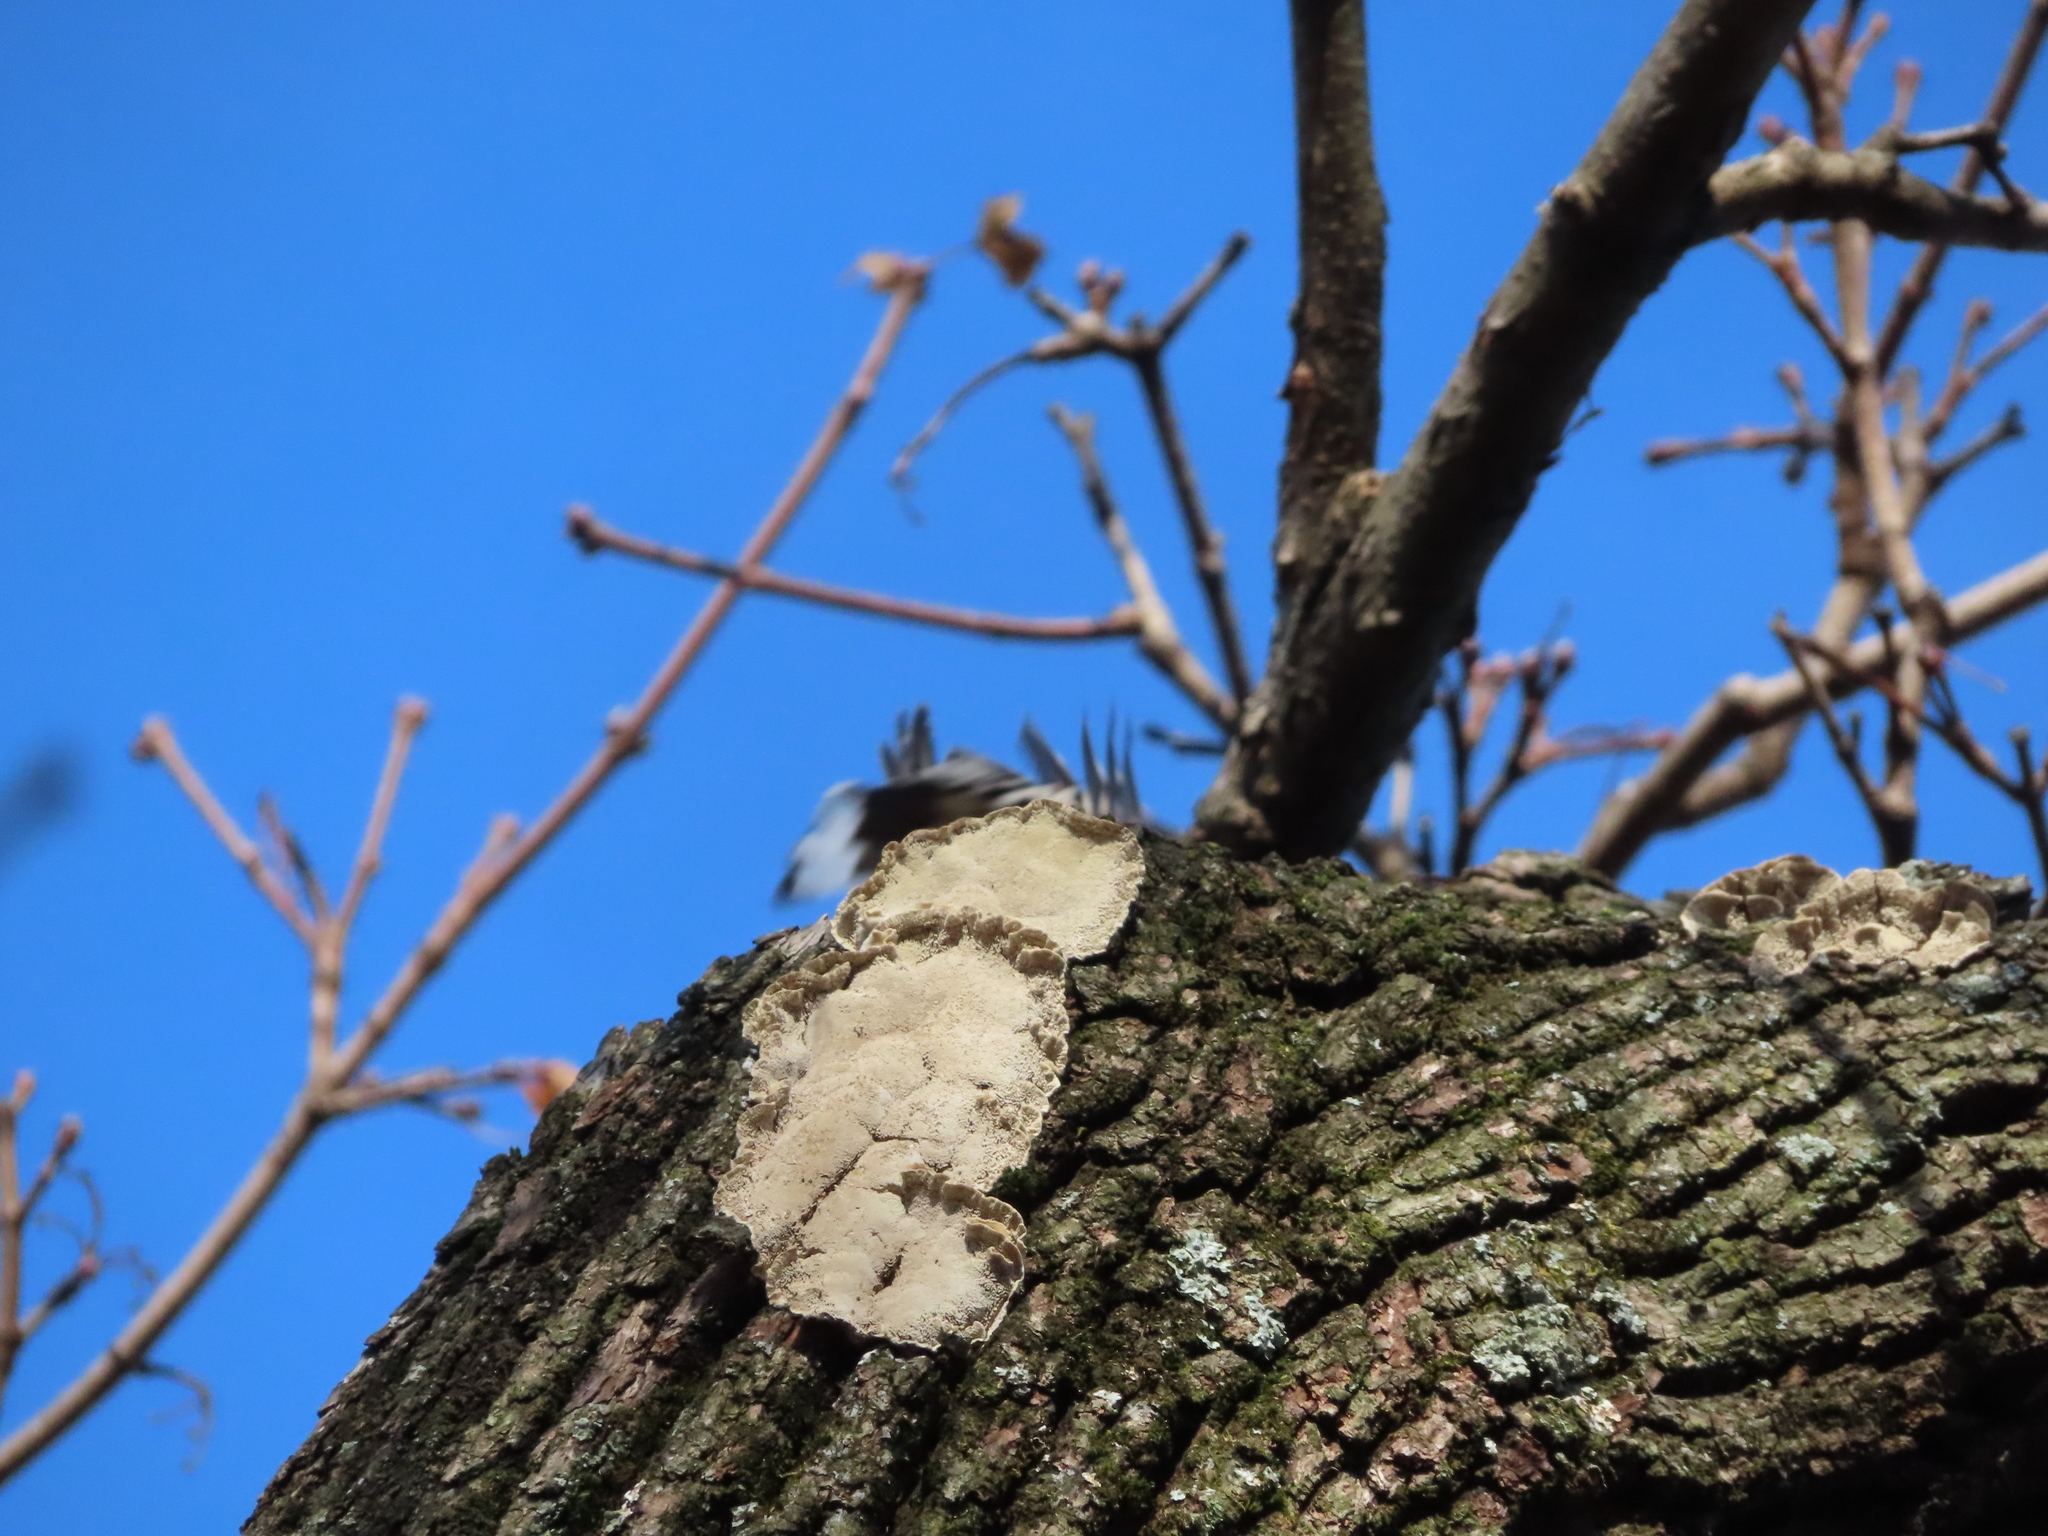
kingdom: Animalia
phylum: Chordata
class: Aves
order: Passeriformes
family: Sittidae
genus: Sitta
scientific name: Sitta carolinensis
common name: White-breasted nuthatch
